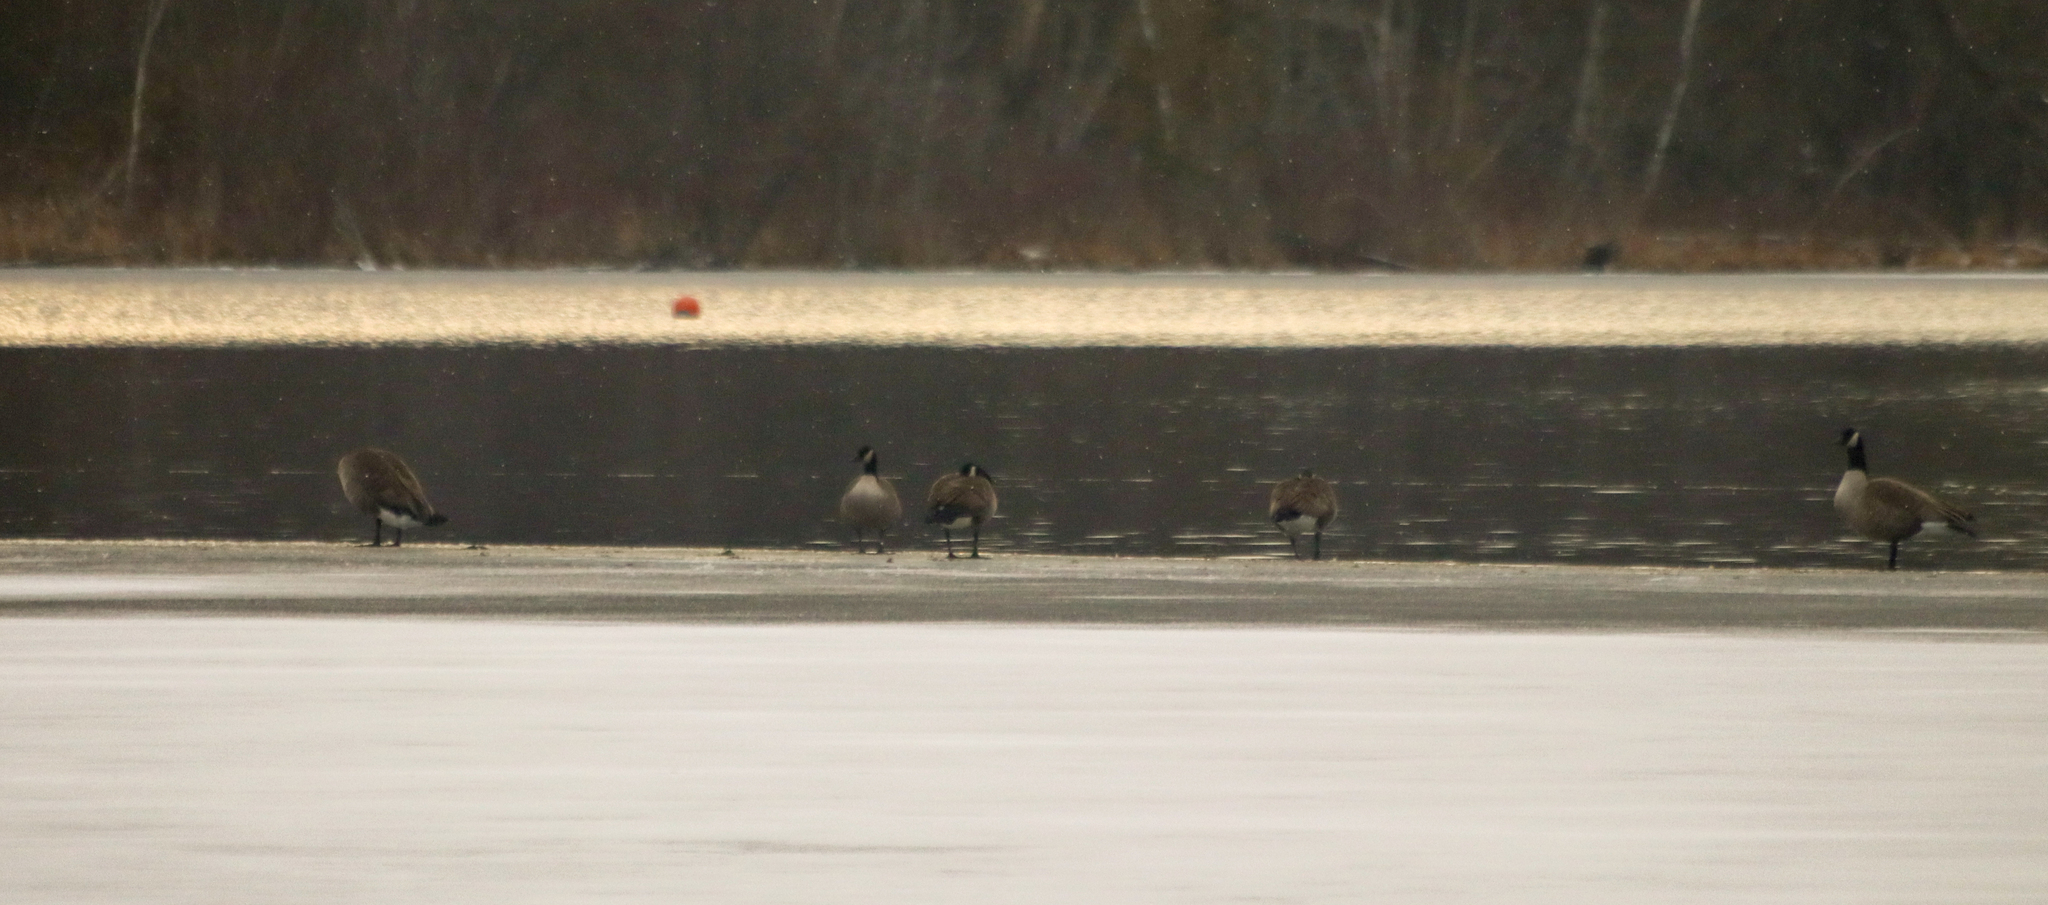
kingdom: Animalia
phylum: Chordata
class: Aves
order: Anseriformes
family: Anatidae
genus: Branta
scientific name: Branta canadensis
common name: Canada goose
